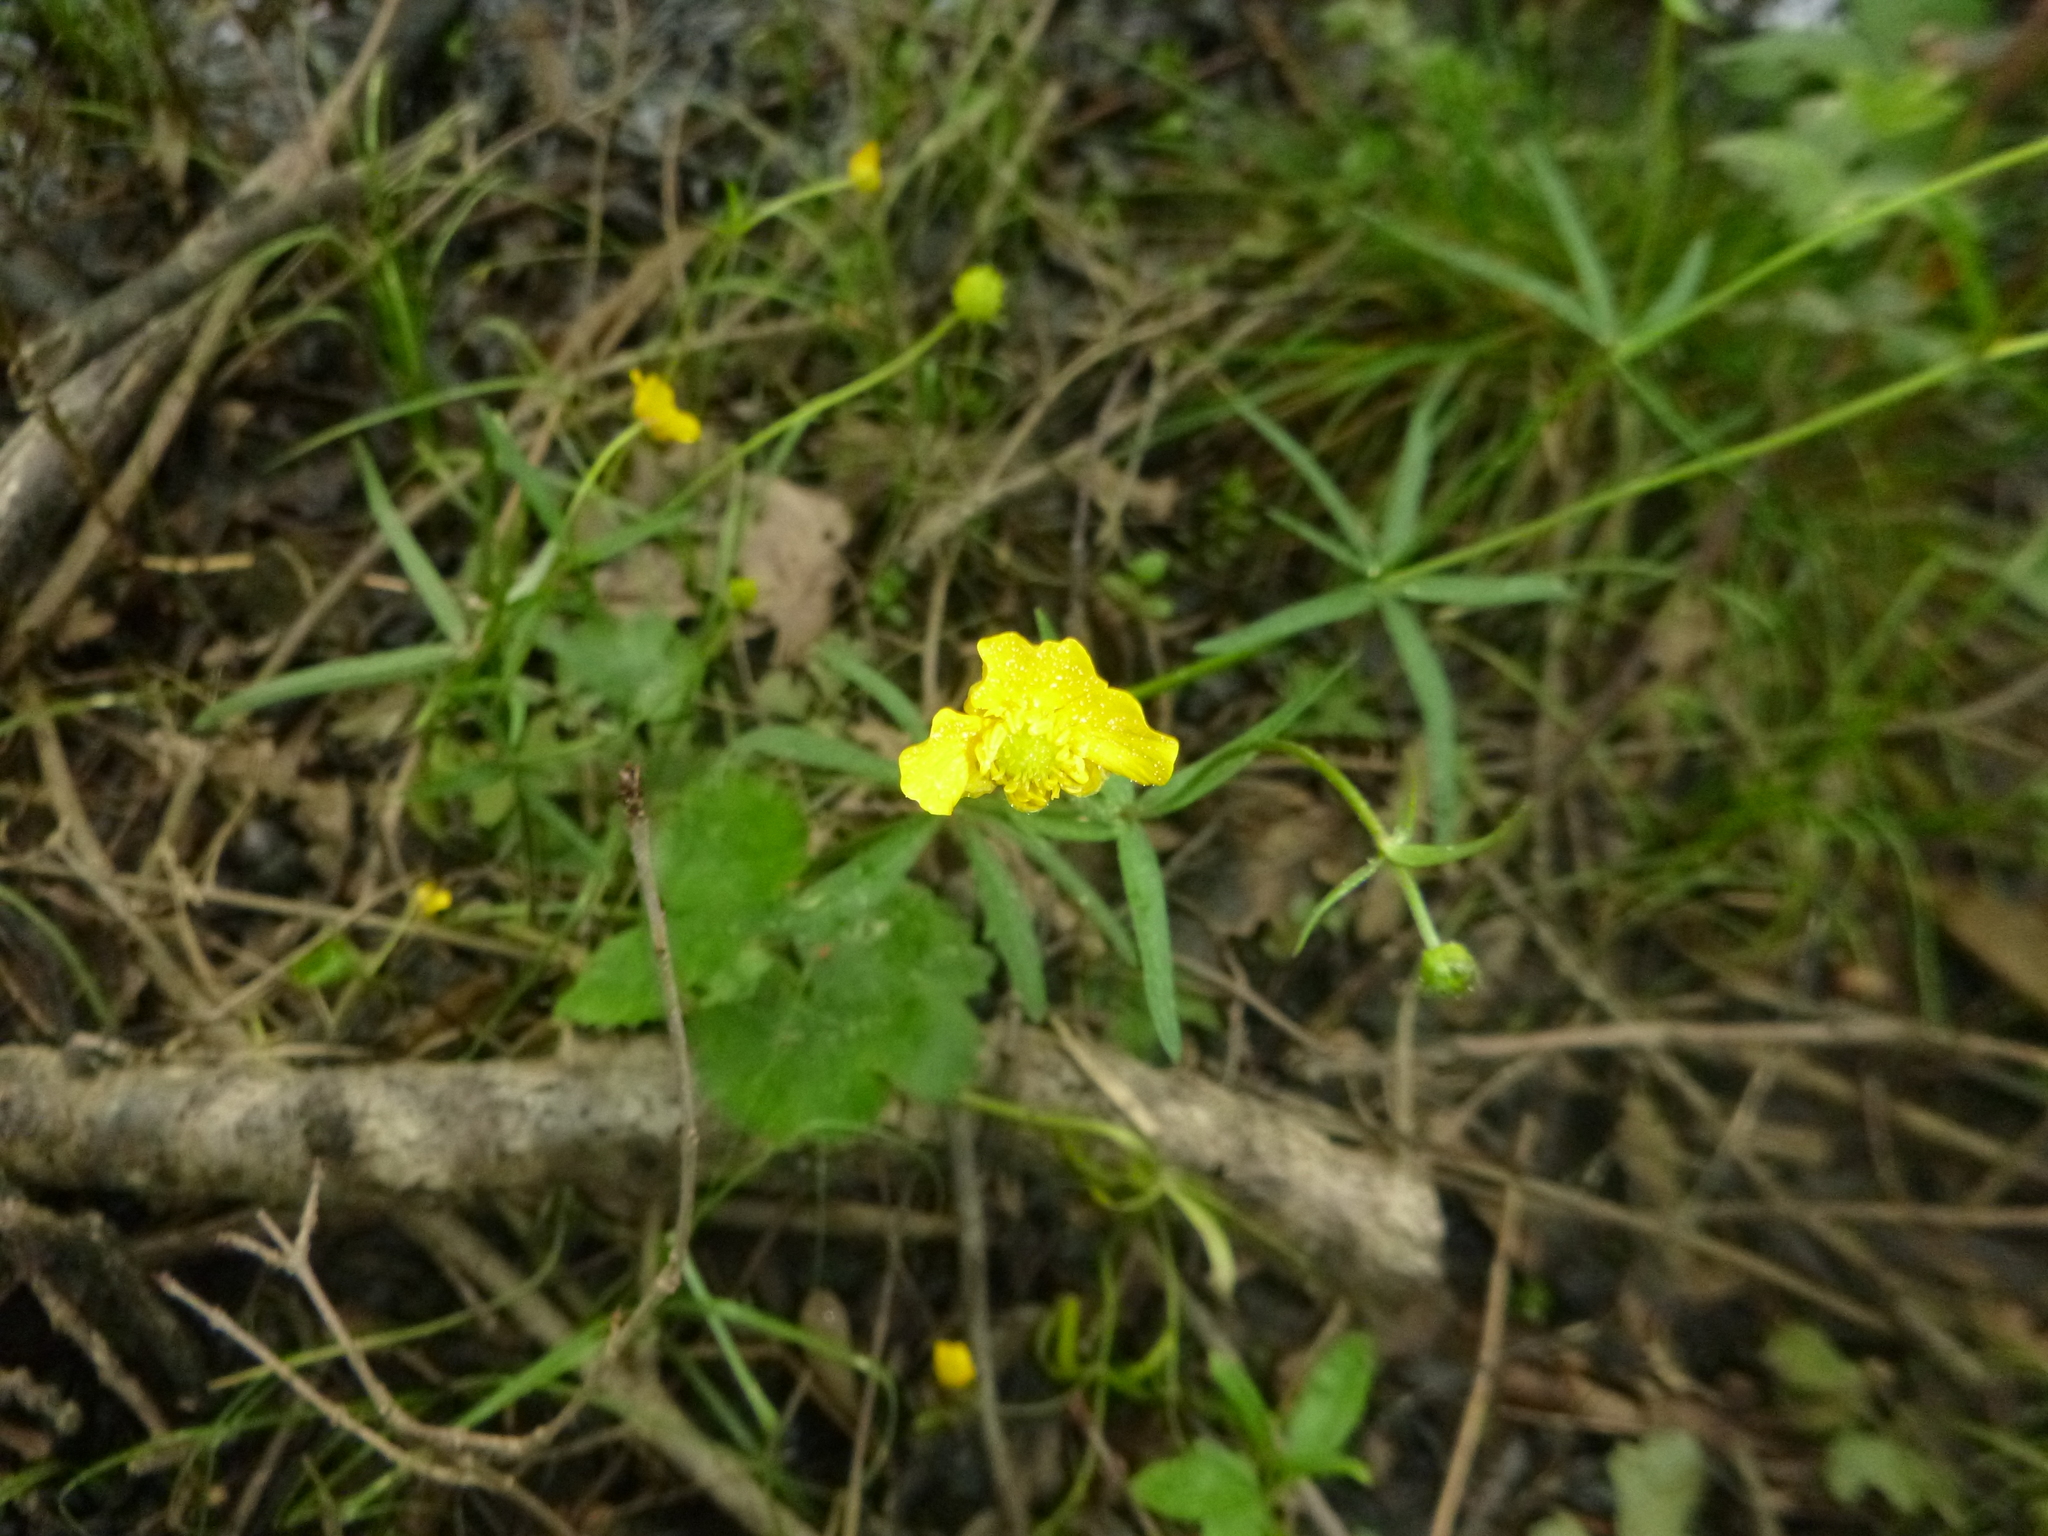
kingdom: Plantae
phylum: Tracheophyta
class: Magnoliopsida
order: Ranunculales
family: Ranunculaceae
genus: Ranunculus
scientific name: Ranunculus auricomus
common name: Goldilocks buttercup
